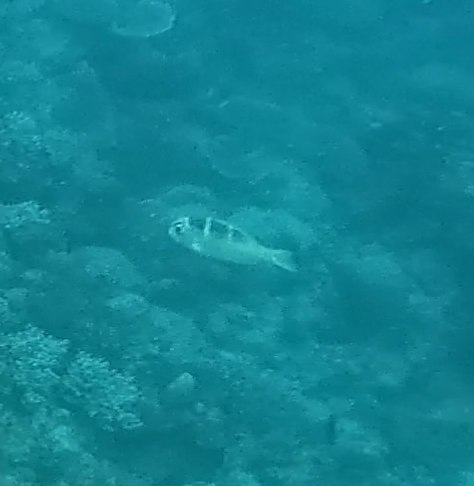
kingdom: Animalia
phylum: Chordata
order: Perciformes
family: Lethrinidae
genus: Monotaxis
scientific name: Monotaxis grandoculis
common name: Bigeye emperor
